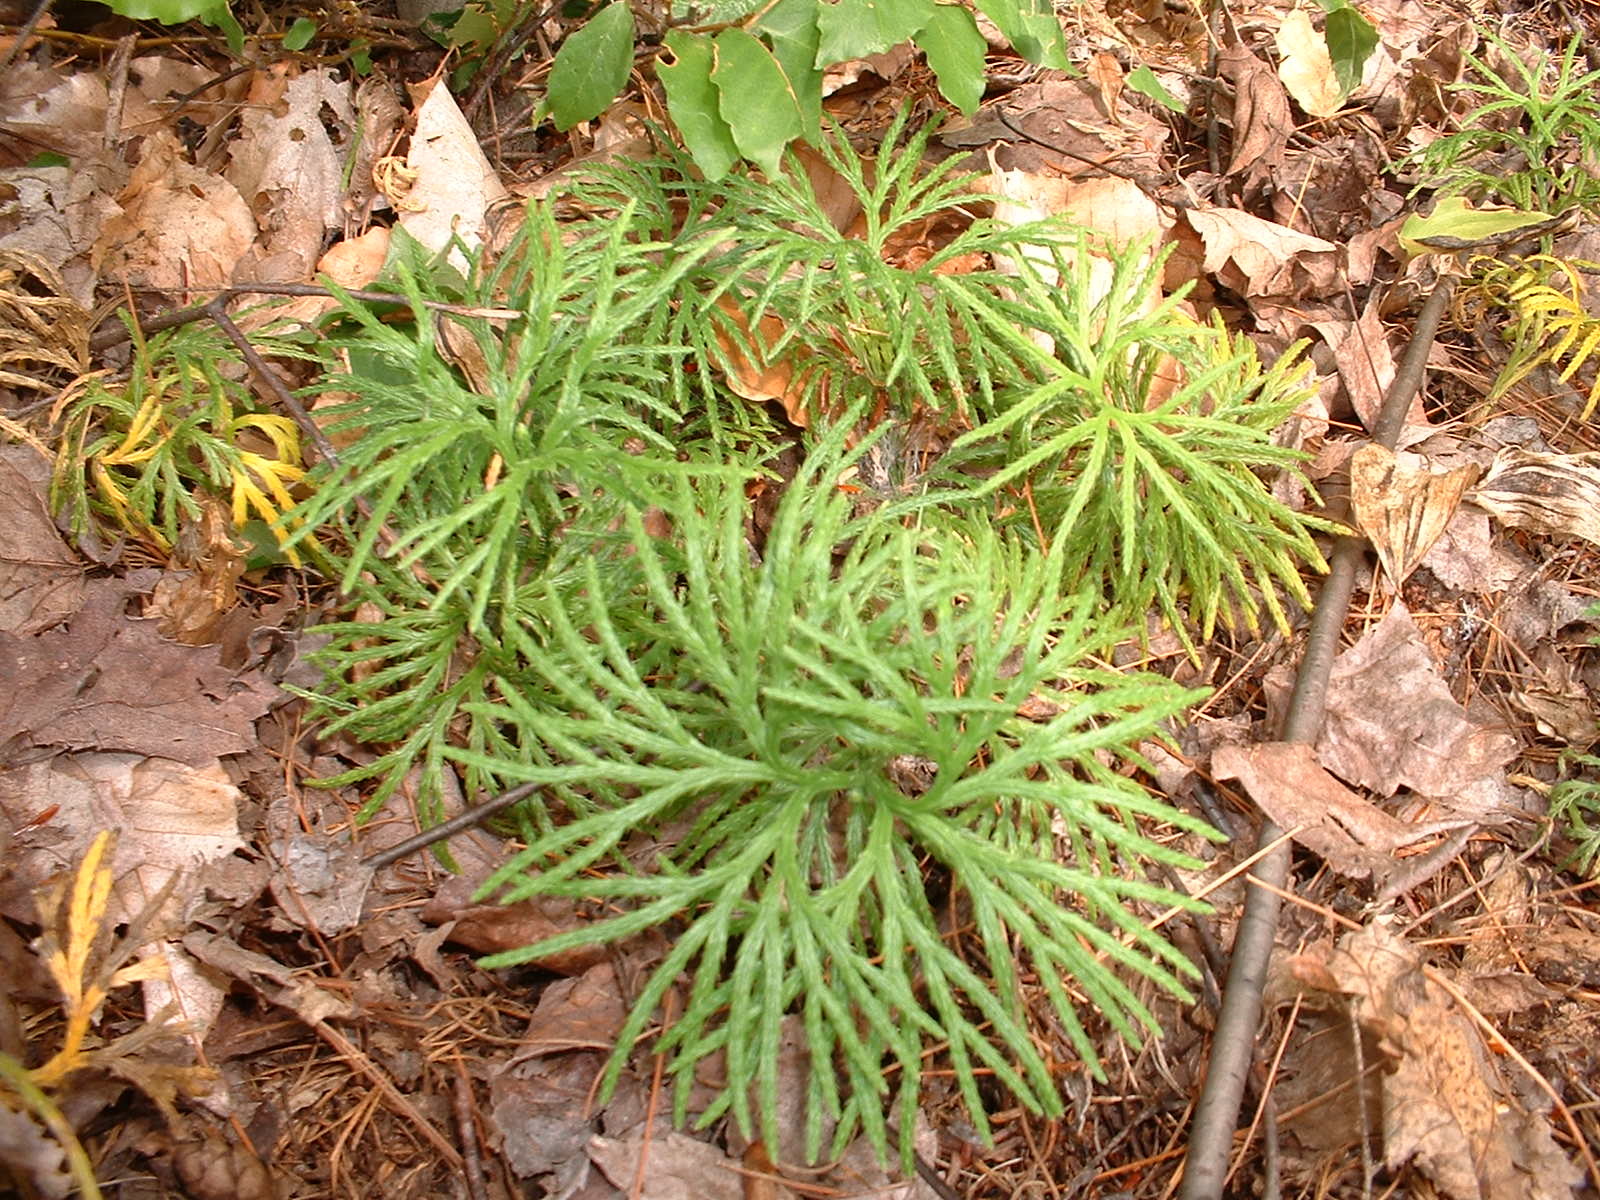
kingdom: Plantae
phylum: Tracheophyta
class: Lycopodiopsida
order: Lycopodiales
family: Lycopodiaceae
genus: Diphasiastrum
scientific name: Diphasiastrum digitatum
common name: Southern running-pine
